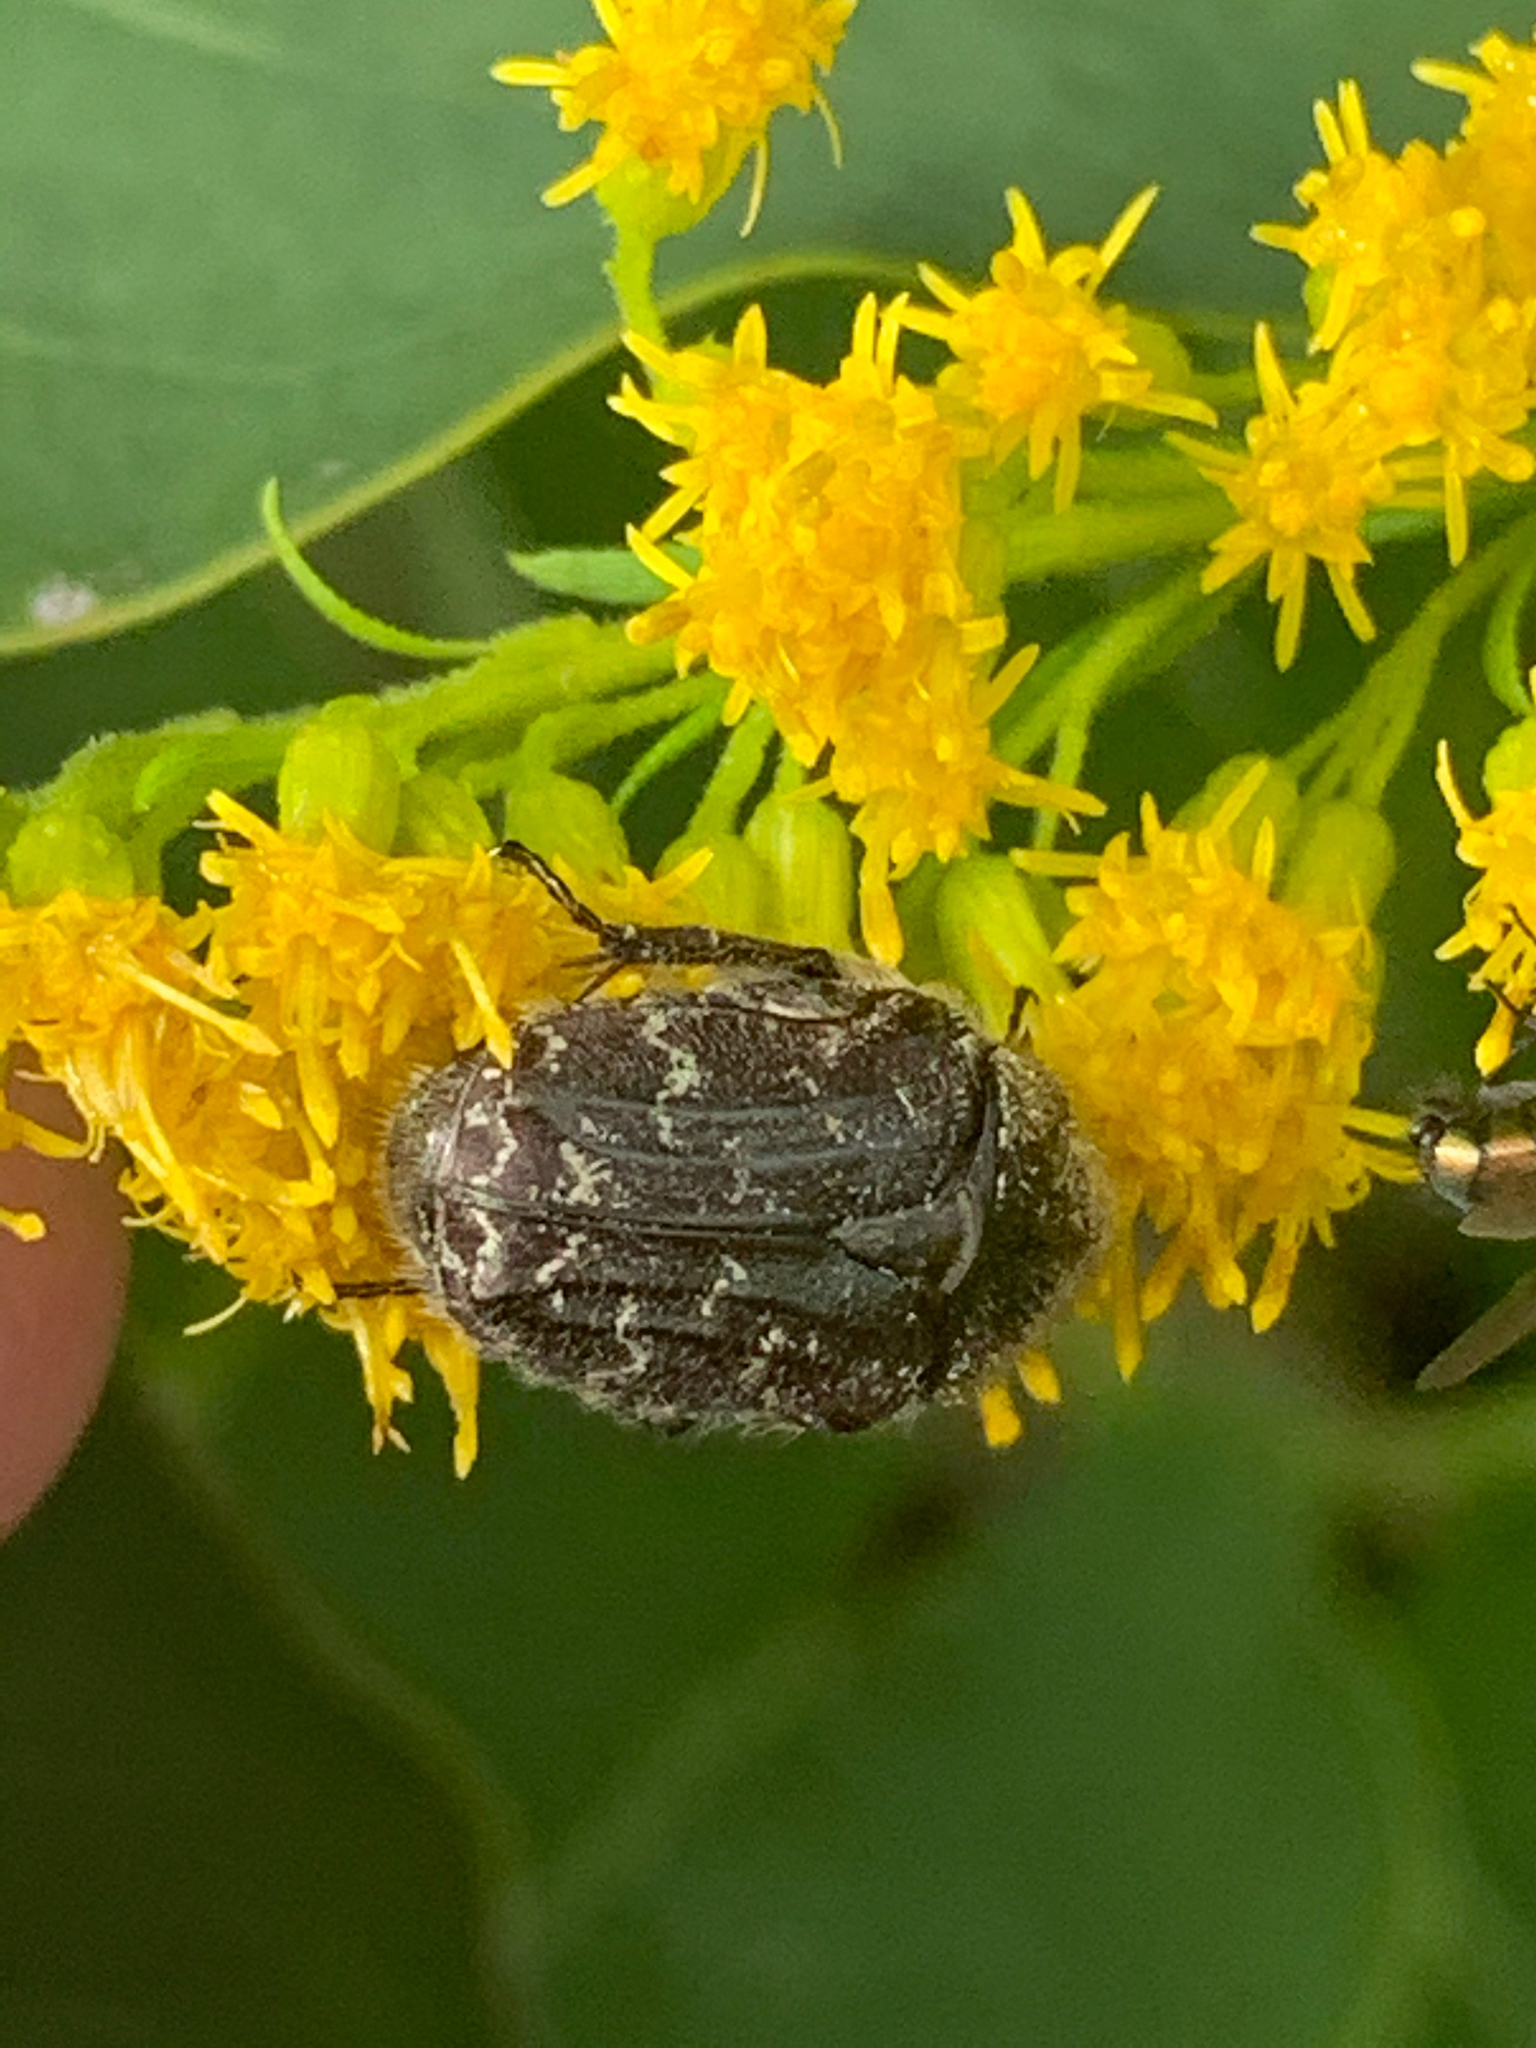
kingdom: Animalia
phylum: Arthropoda
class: Insecta
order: Coleoptera
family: Scarabaeidae
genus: Euphoria
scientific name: Euphoria sepulcralis
